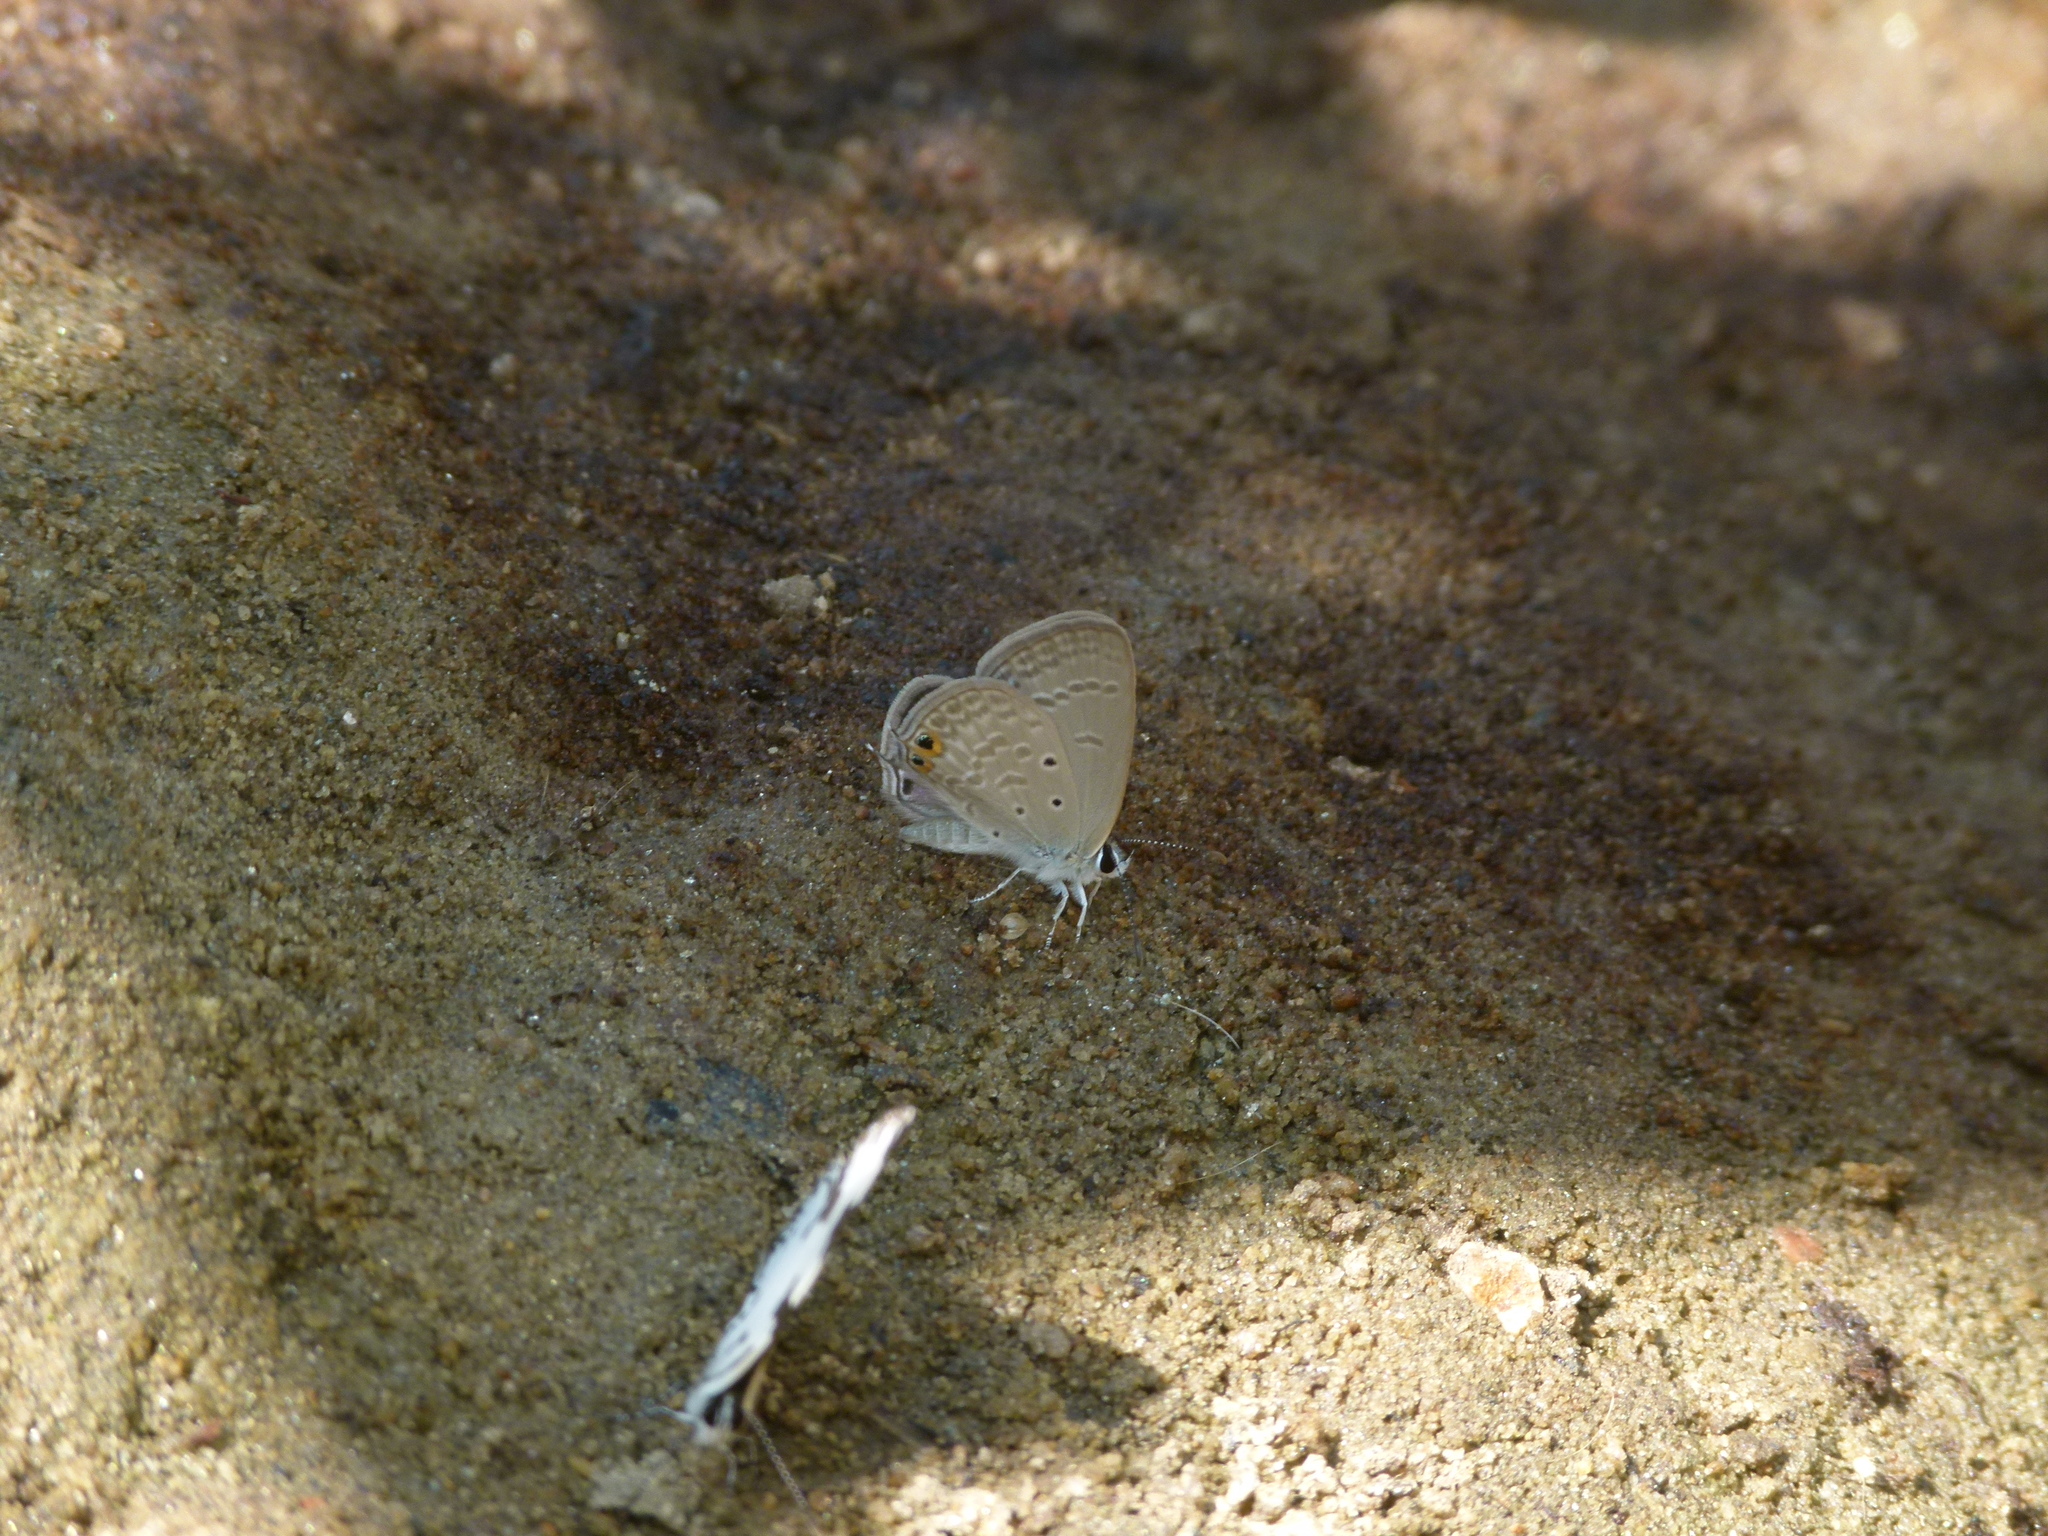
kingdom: Animalia
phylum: Arthropoda
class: Insecta
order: Lepidoptera
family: Lycaenidae
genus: Euchrysops
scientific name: Euchrysops cnejus
